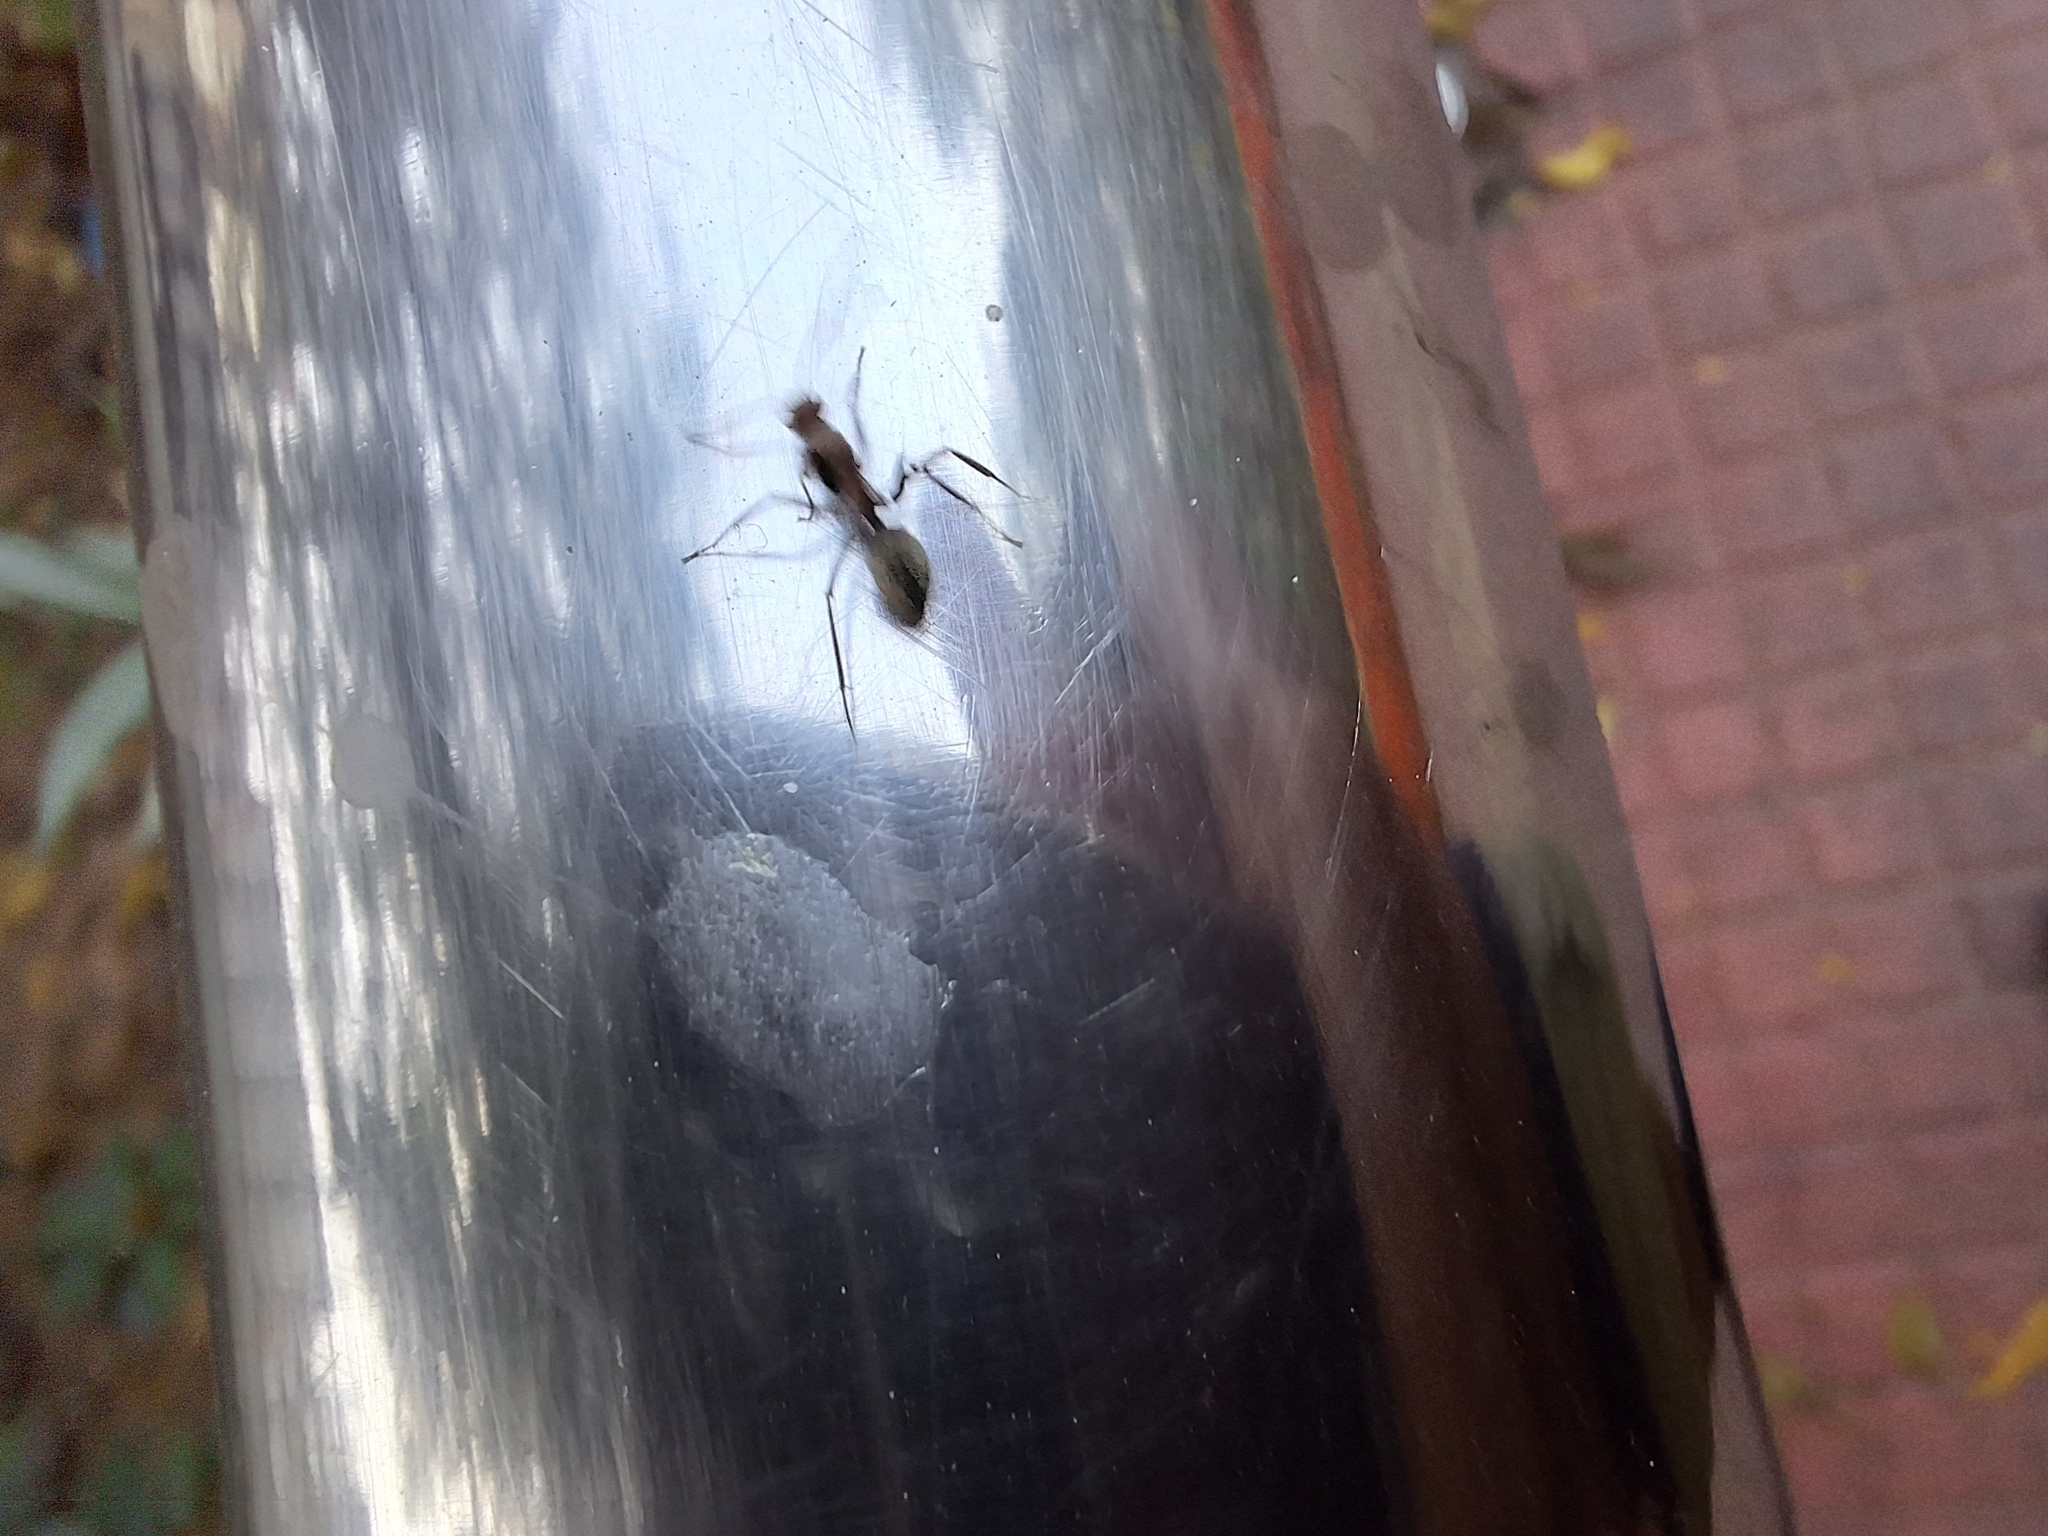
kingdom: Animalia
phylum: Arthropoda
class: Insecta
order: Hymenoptera
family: Formicidae
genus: Camponotus
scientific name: Camponotus rufoglaucus
